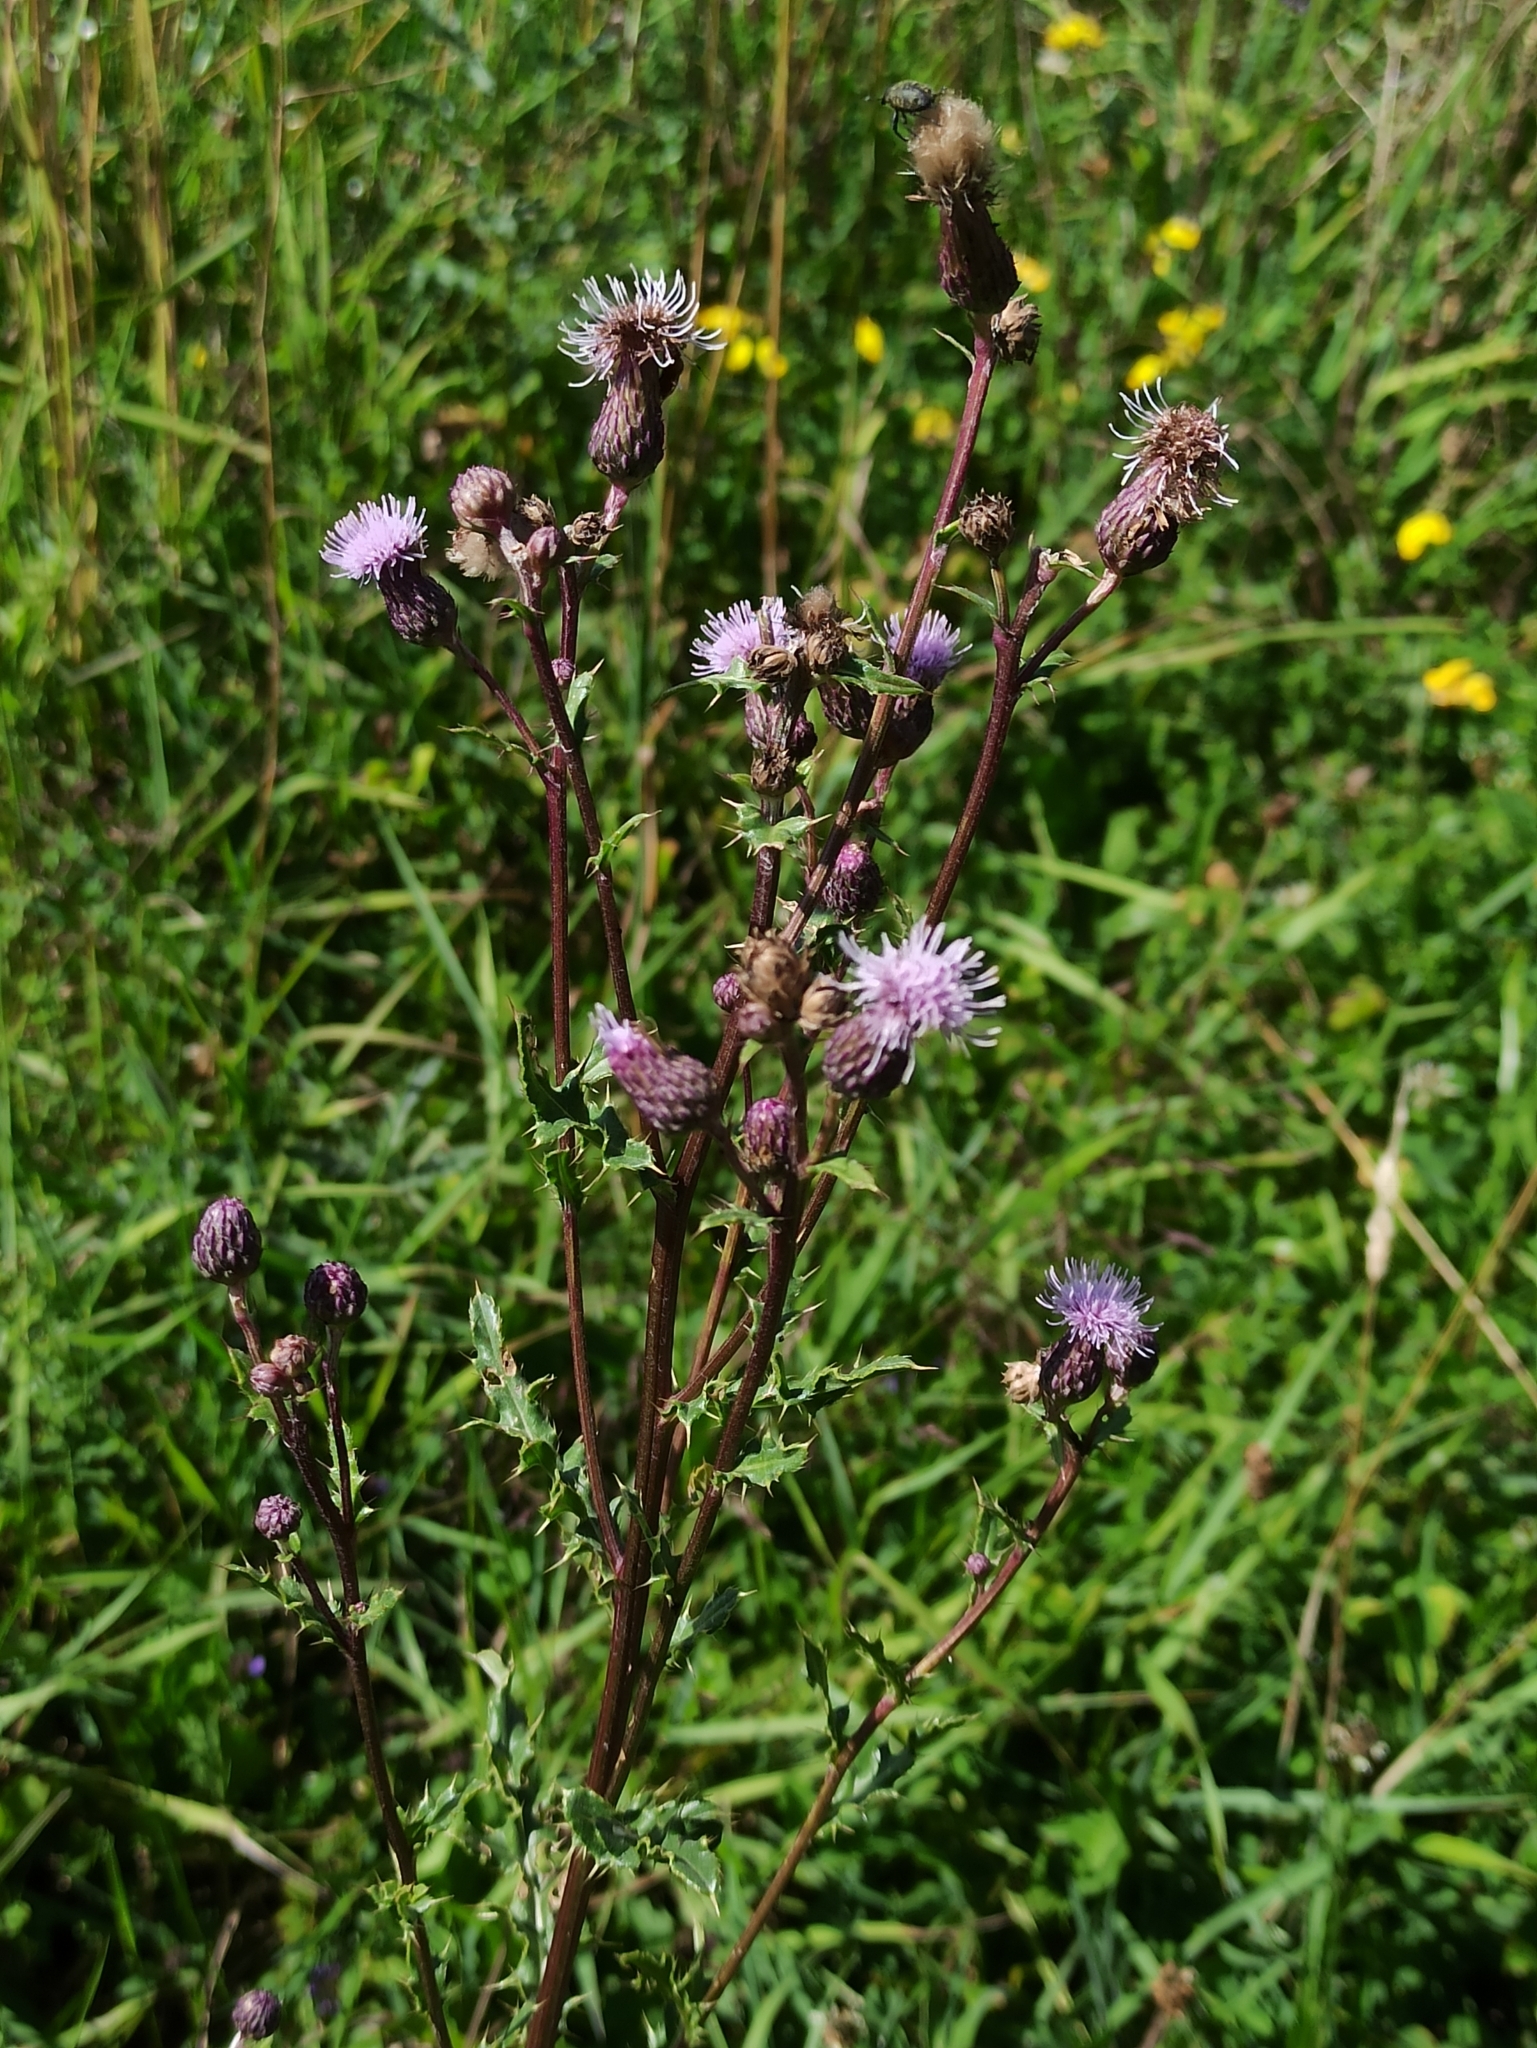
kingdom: Plantae
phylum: Tracheophyta
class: Magnoliopsida
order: Asterales
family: Asteraceae
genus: Cirsium
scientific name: Cirsium arvense
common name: Creeping thistle
